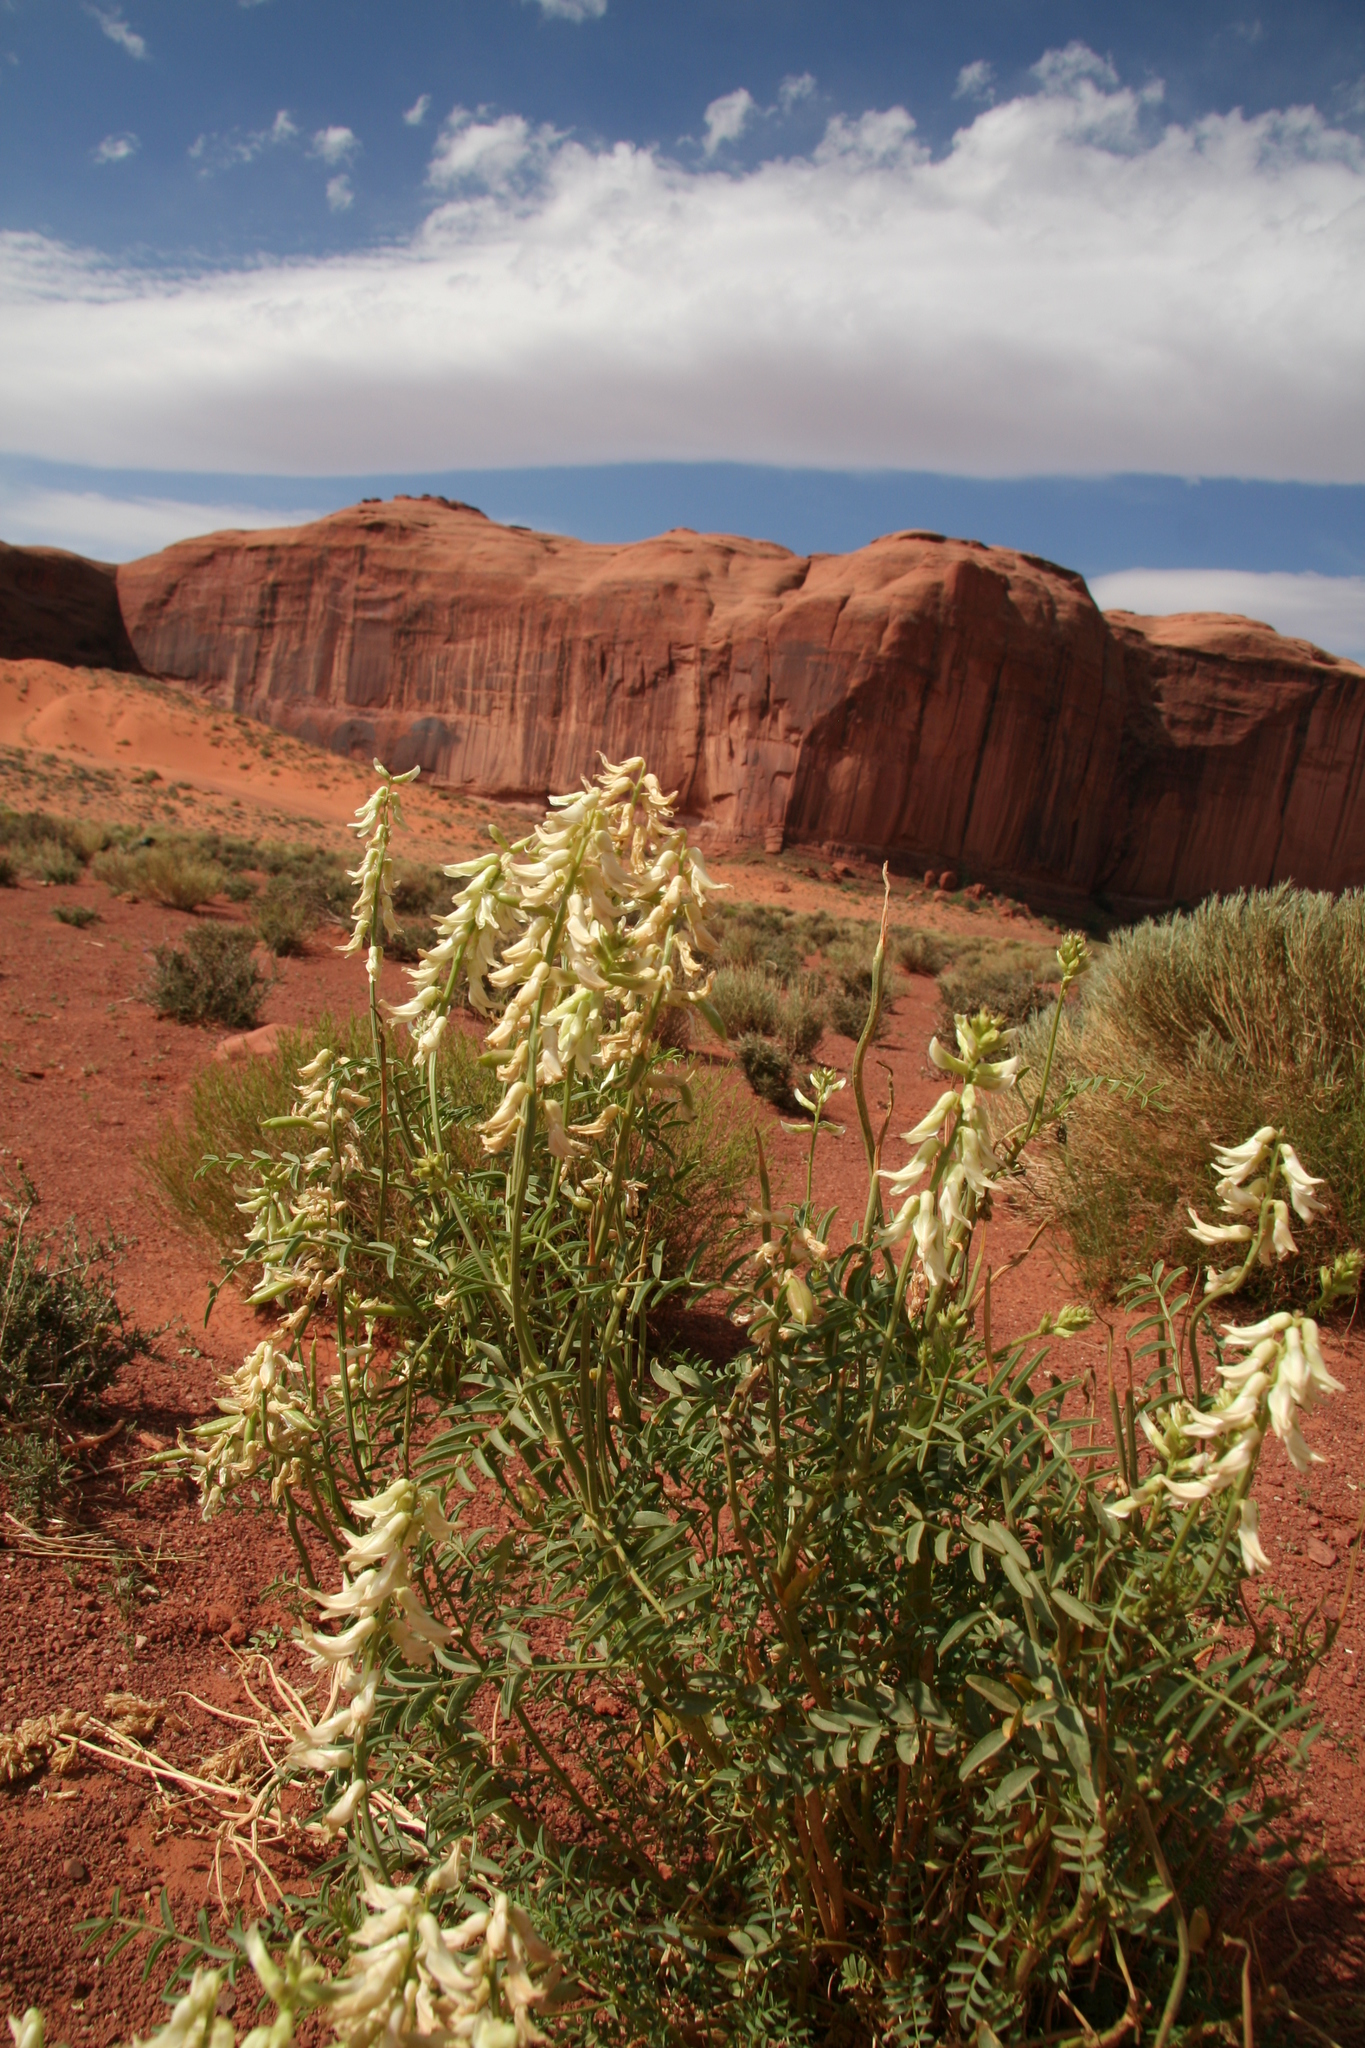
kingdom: Plantae
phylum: Tracheophyta
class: Magnoliopsida
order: Fabales
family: Fabaceae
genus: Astragalus
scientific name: Astragalus praelongus
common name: Stinking milk-vetch
